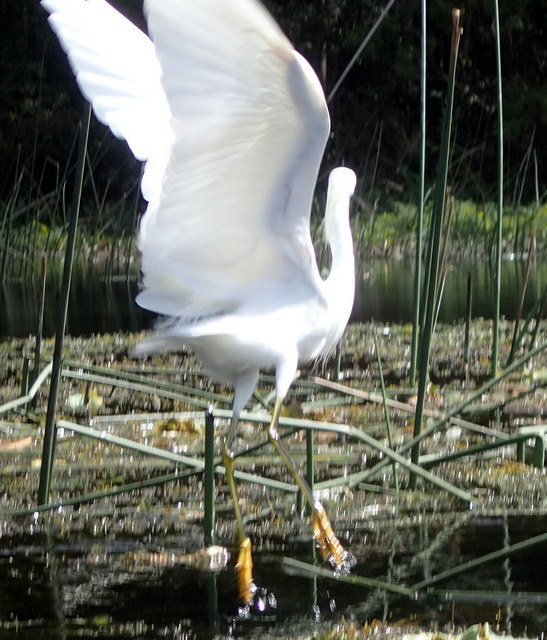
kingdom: Animalia
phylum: Chordata
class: Aves
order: Pelecaniformes
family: Ardeidae
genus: Egretta
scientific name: Egretta thula
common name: Snowy egret
